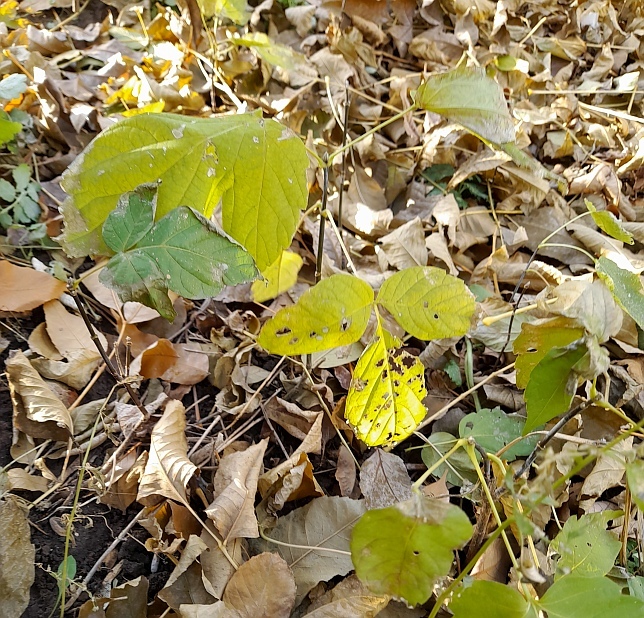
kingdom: Plantae
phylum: Tracheophyta
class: Magnoliopsida
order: Sapindales
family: Sapindaceae
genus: Acer
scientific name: Acer negundo
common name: Ashleaf maple
